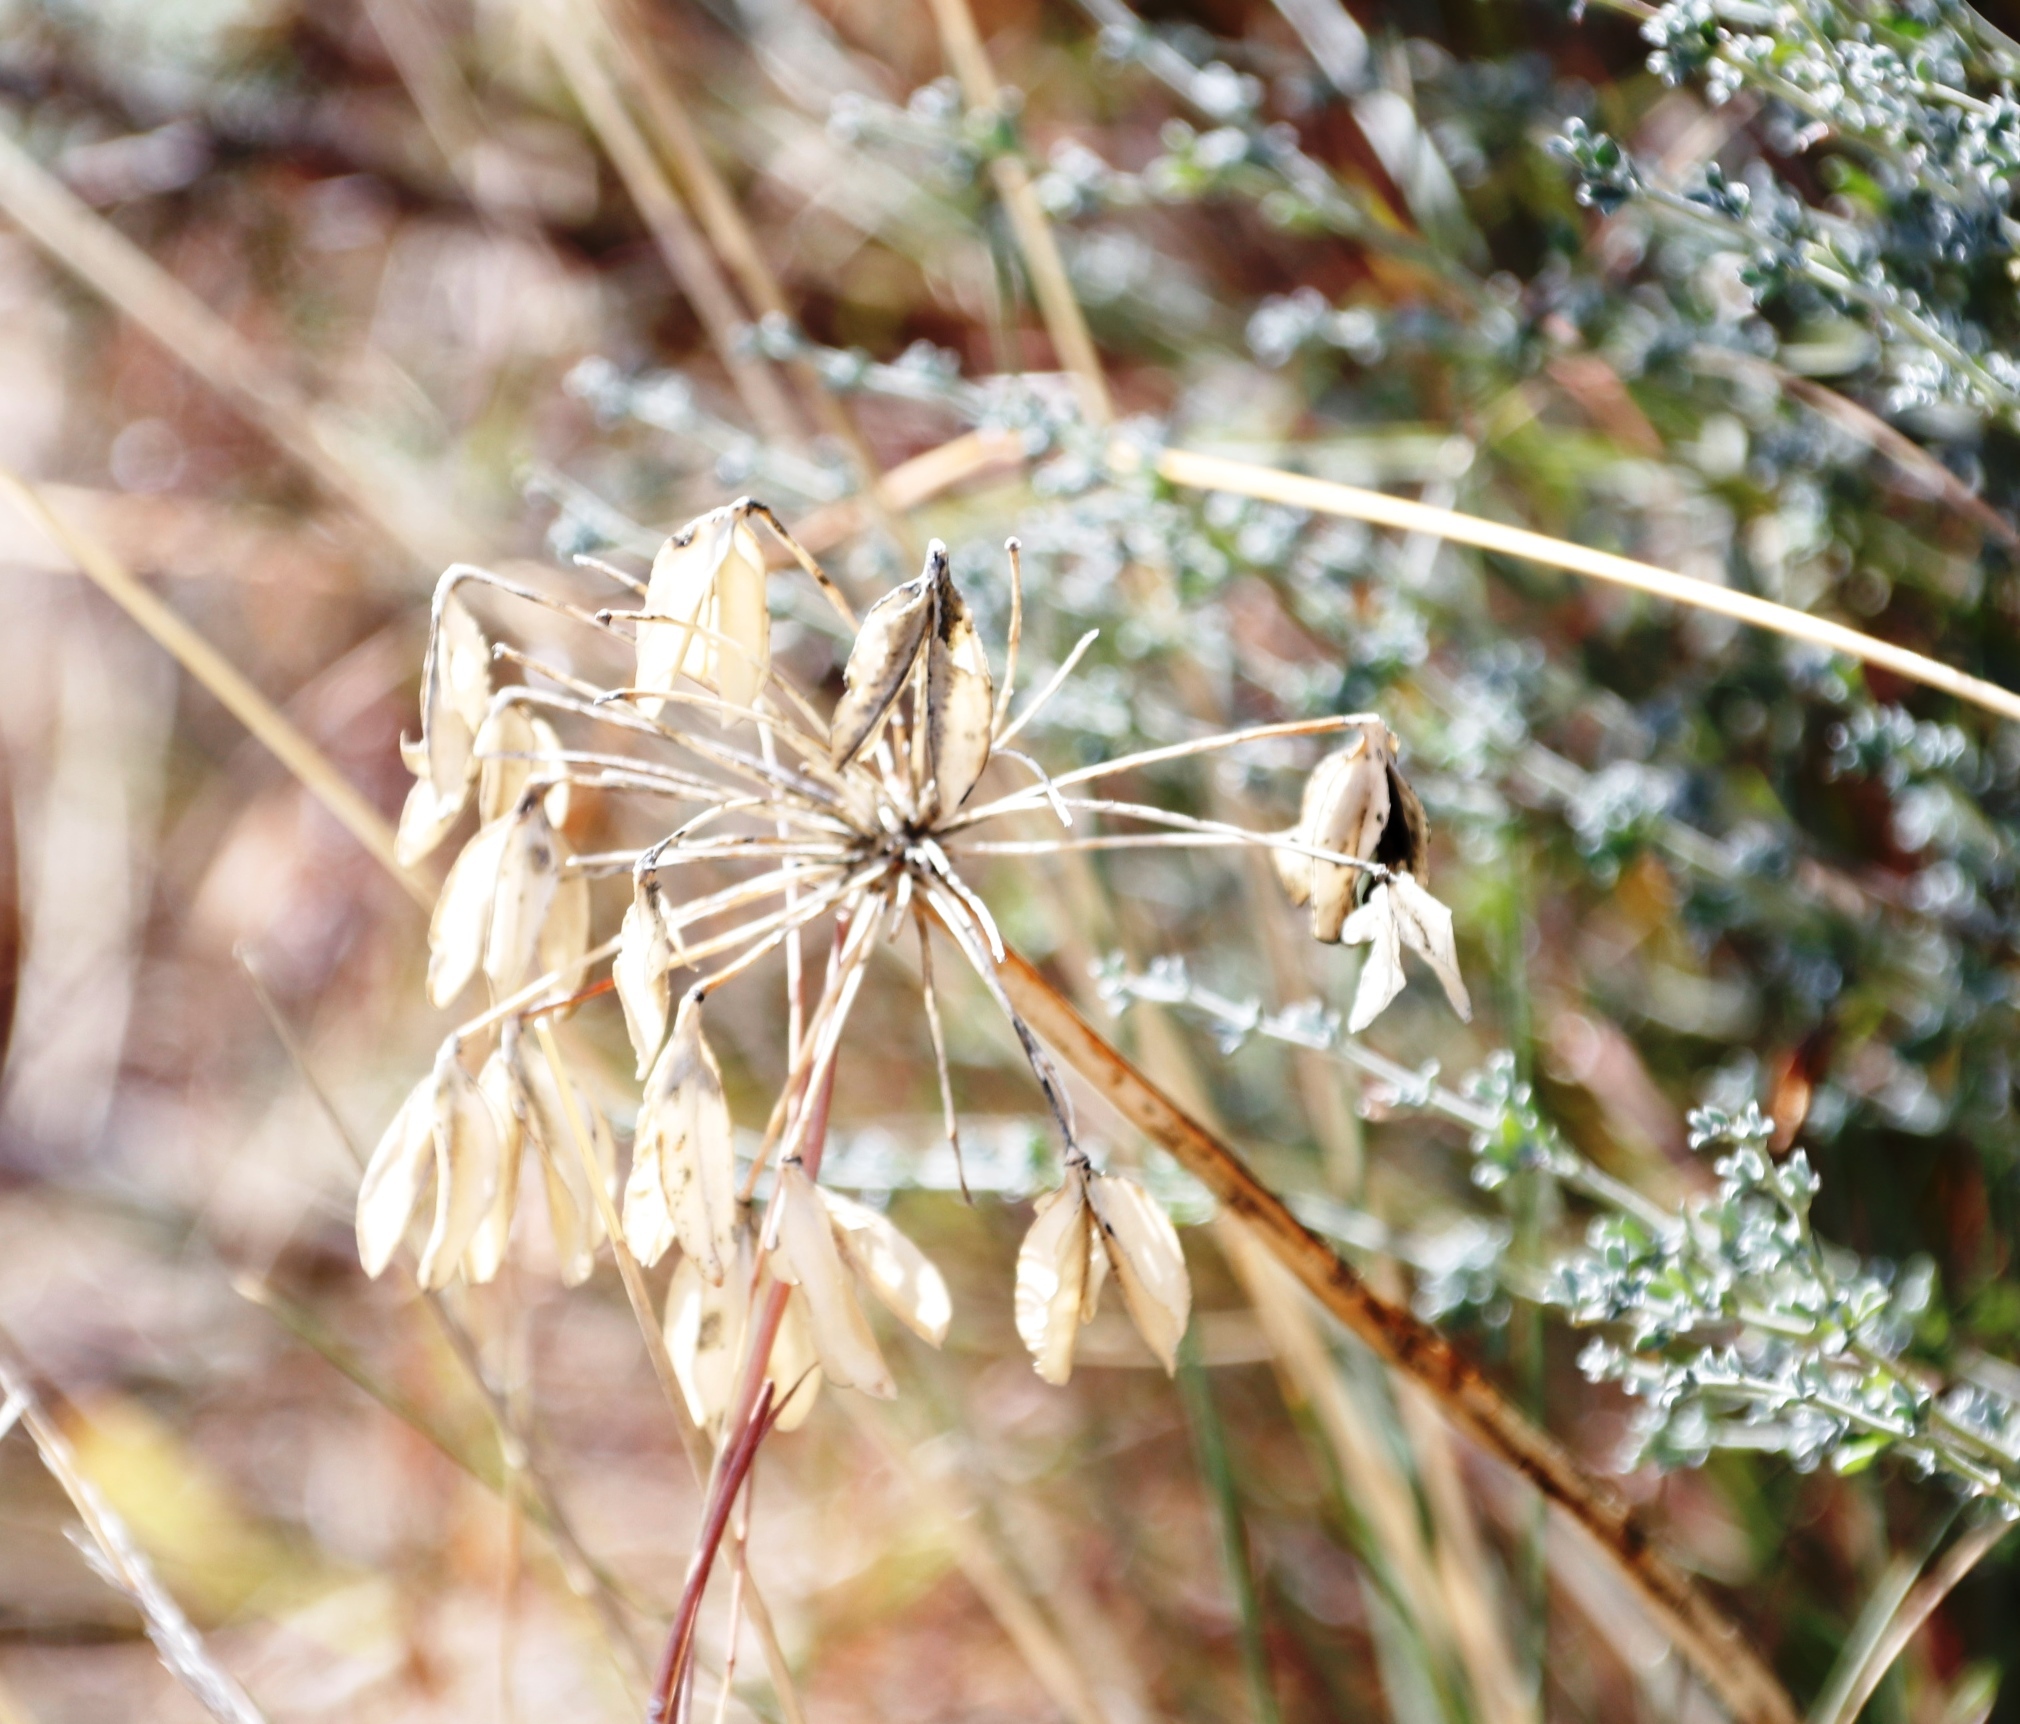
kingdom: Plantae
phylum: Tracheophyta
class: Liliopsida
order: Asparagales
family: Amaryllidaceae
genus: Agapanthus
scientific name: Agapanthus campanulatus
